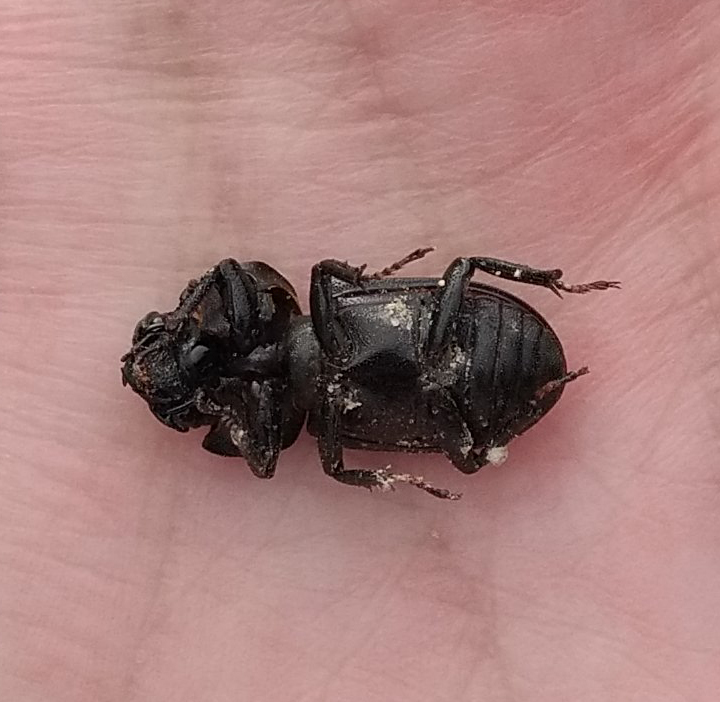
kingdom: Animalia
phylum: Arthropoda
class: Insecta
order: Coleoptera
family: Lucanidae
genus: Dorcus
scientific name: Dorcus parallelipipedus
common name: Lesser stag beetle
